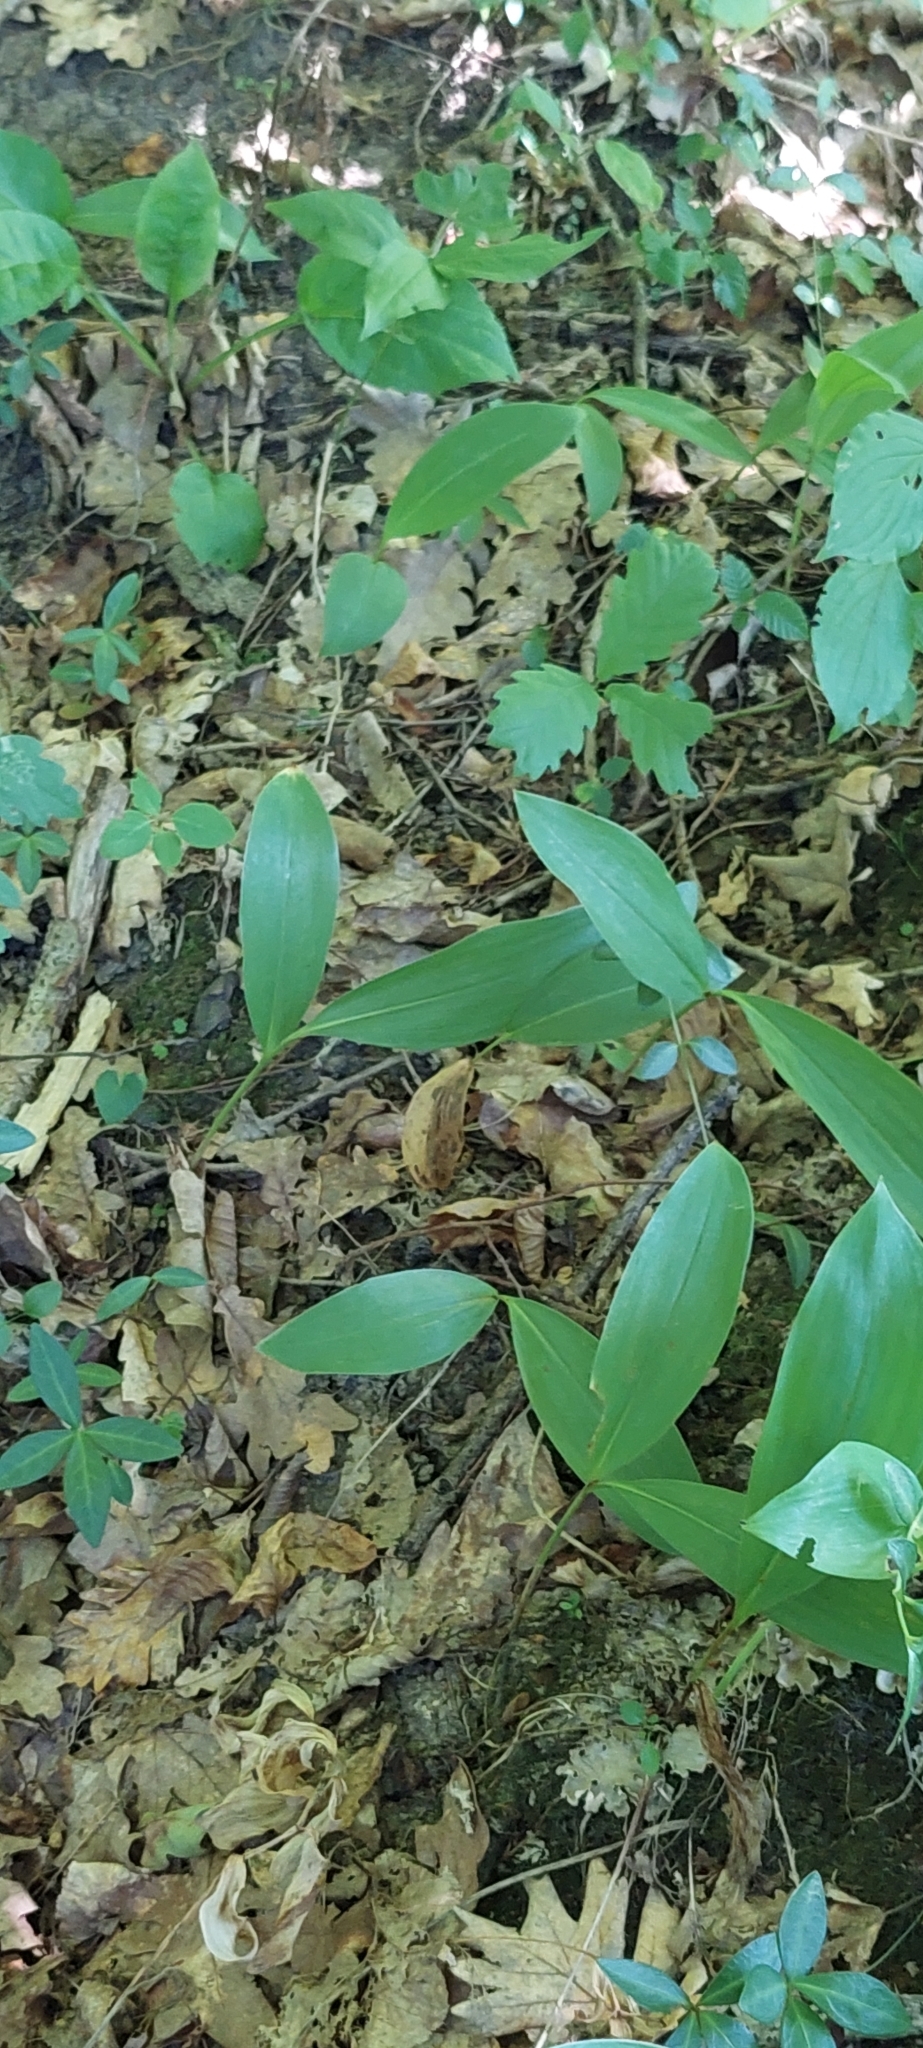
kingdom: Plantae
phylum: Tracheophyta
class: Liliopsida
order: Asparagales
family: Asparagaceae
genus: Convallaria
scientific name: Convallaria majalis
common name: Lily-of-the-valley
